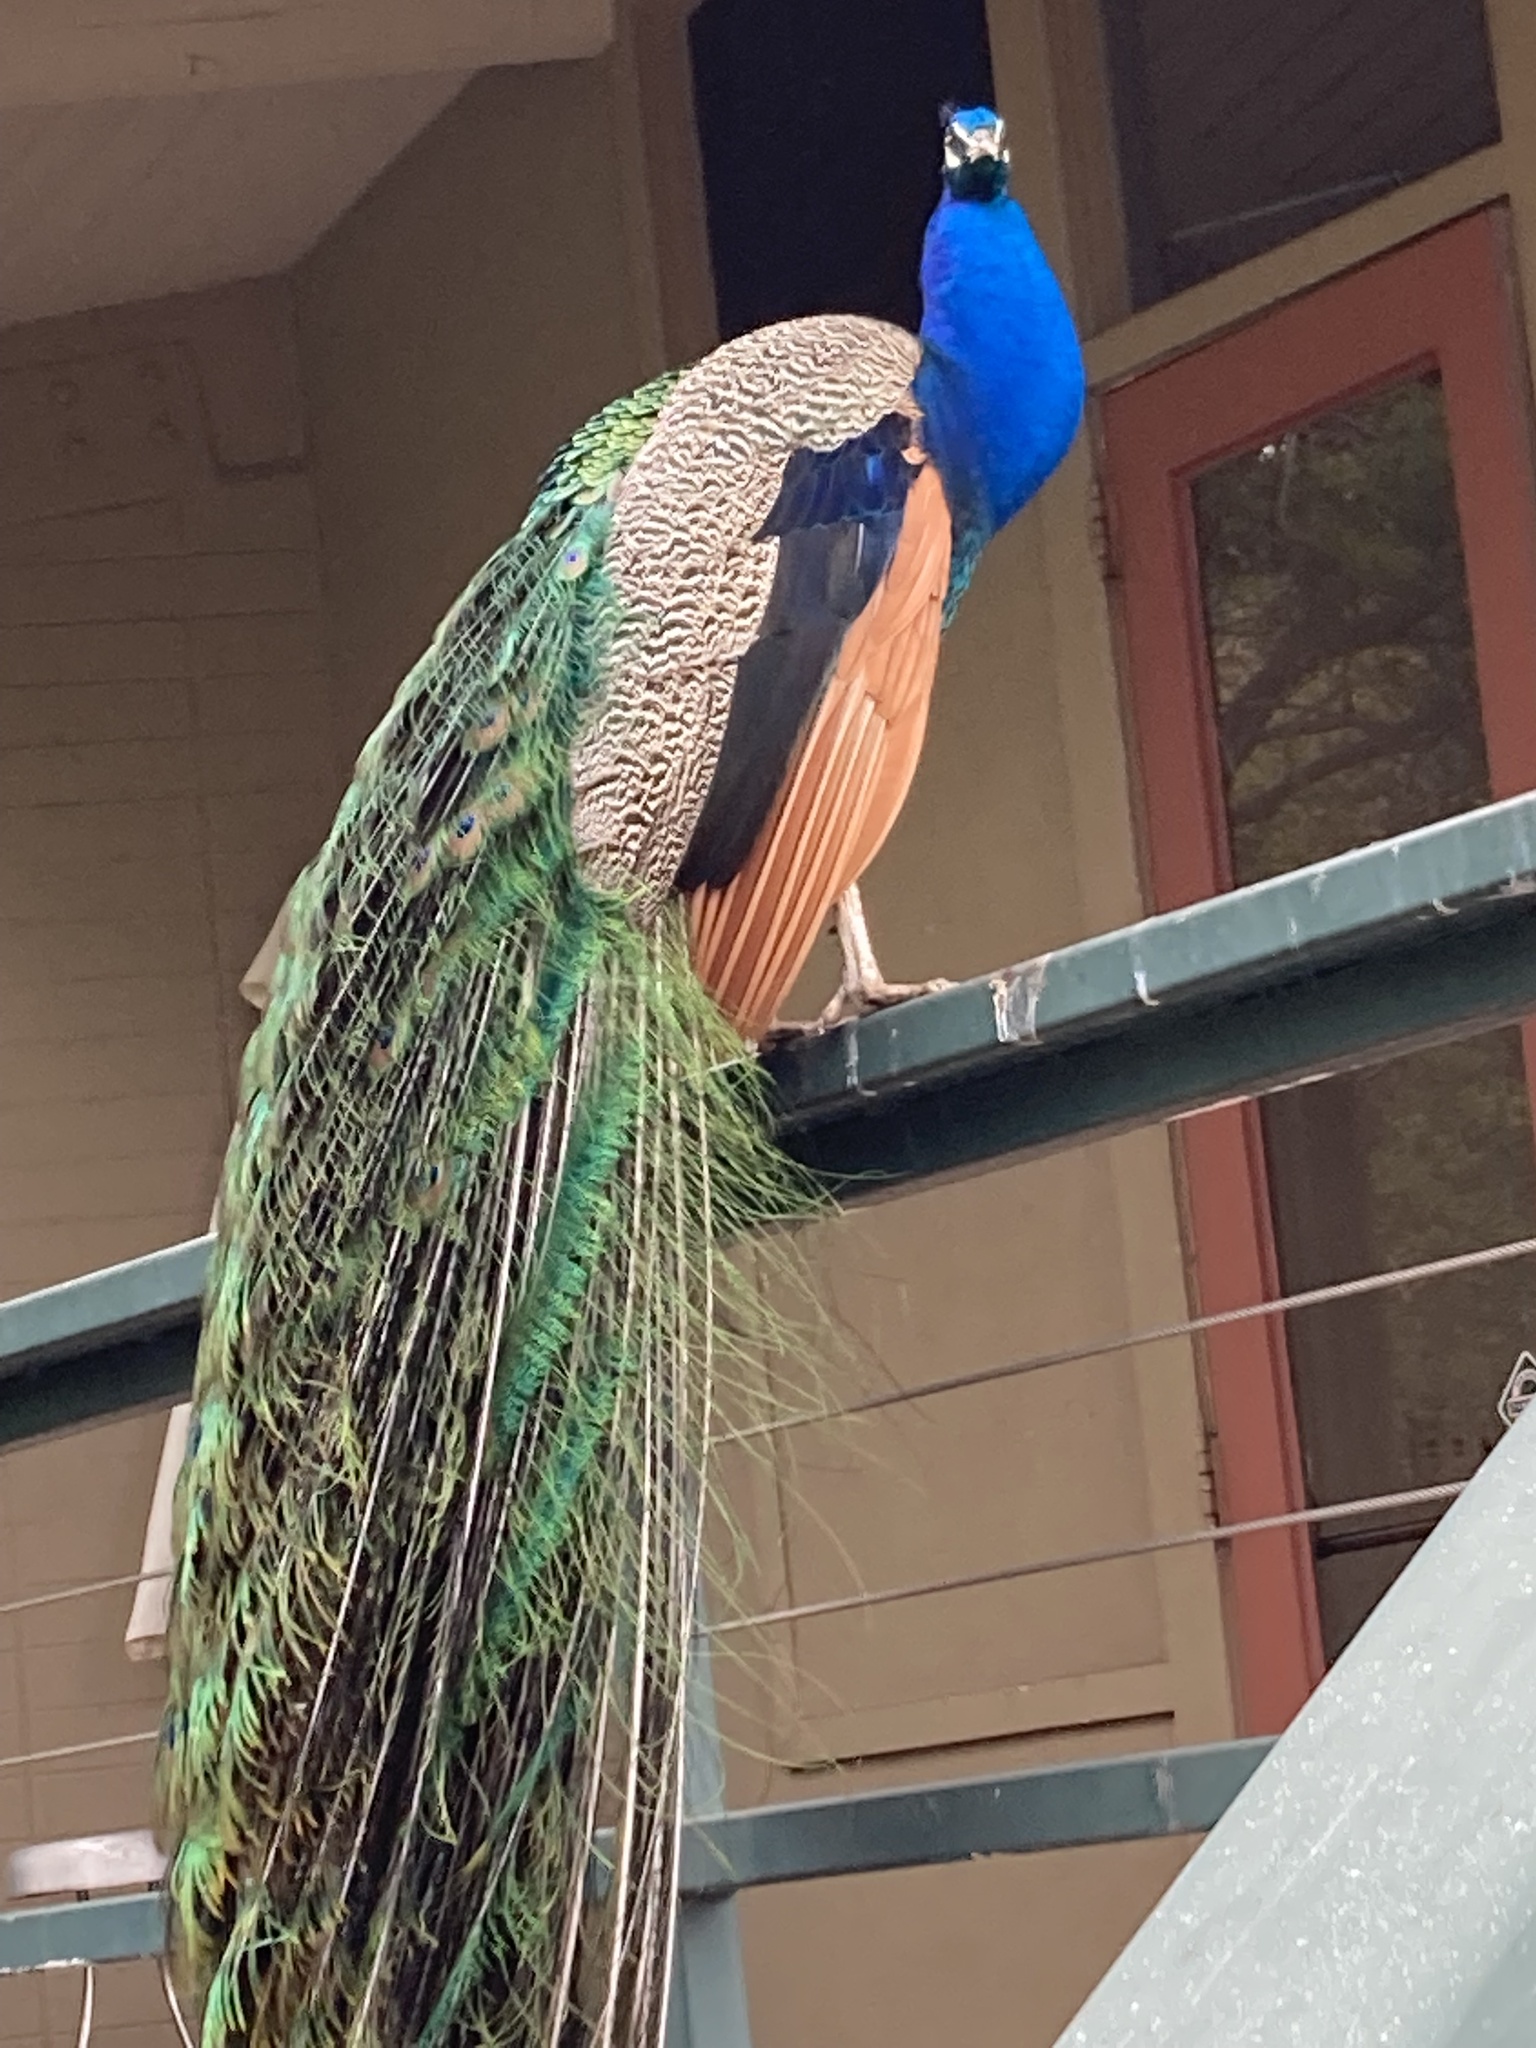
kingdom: Animalia
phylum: Chordata
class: Aves
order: Galliformes
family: Phasianidae
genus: Pavo
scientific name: Pavo cristatus
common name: Indian peafowl
